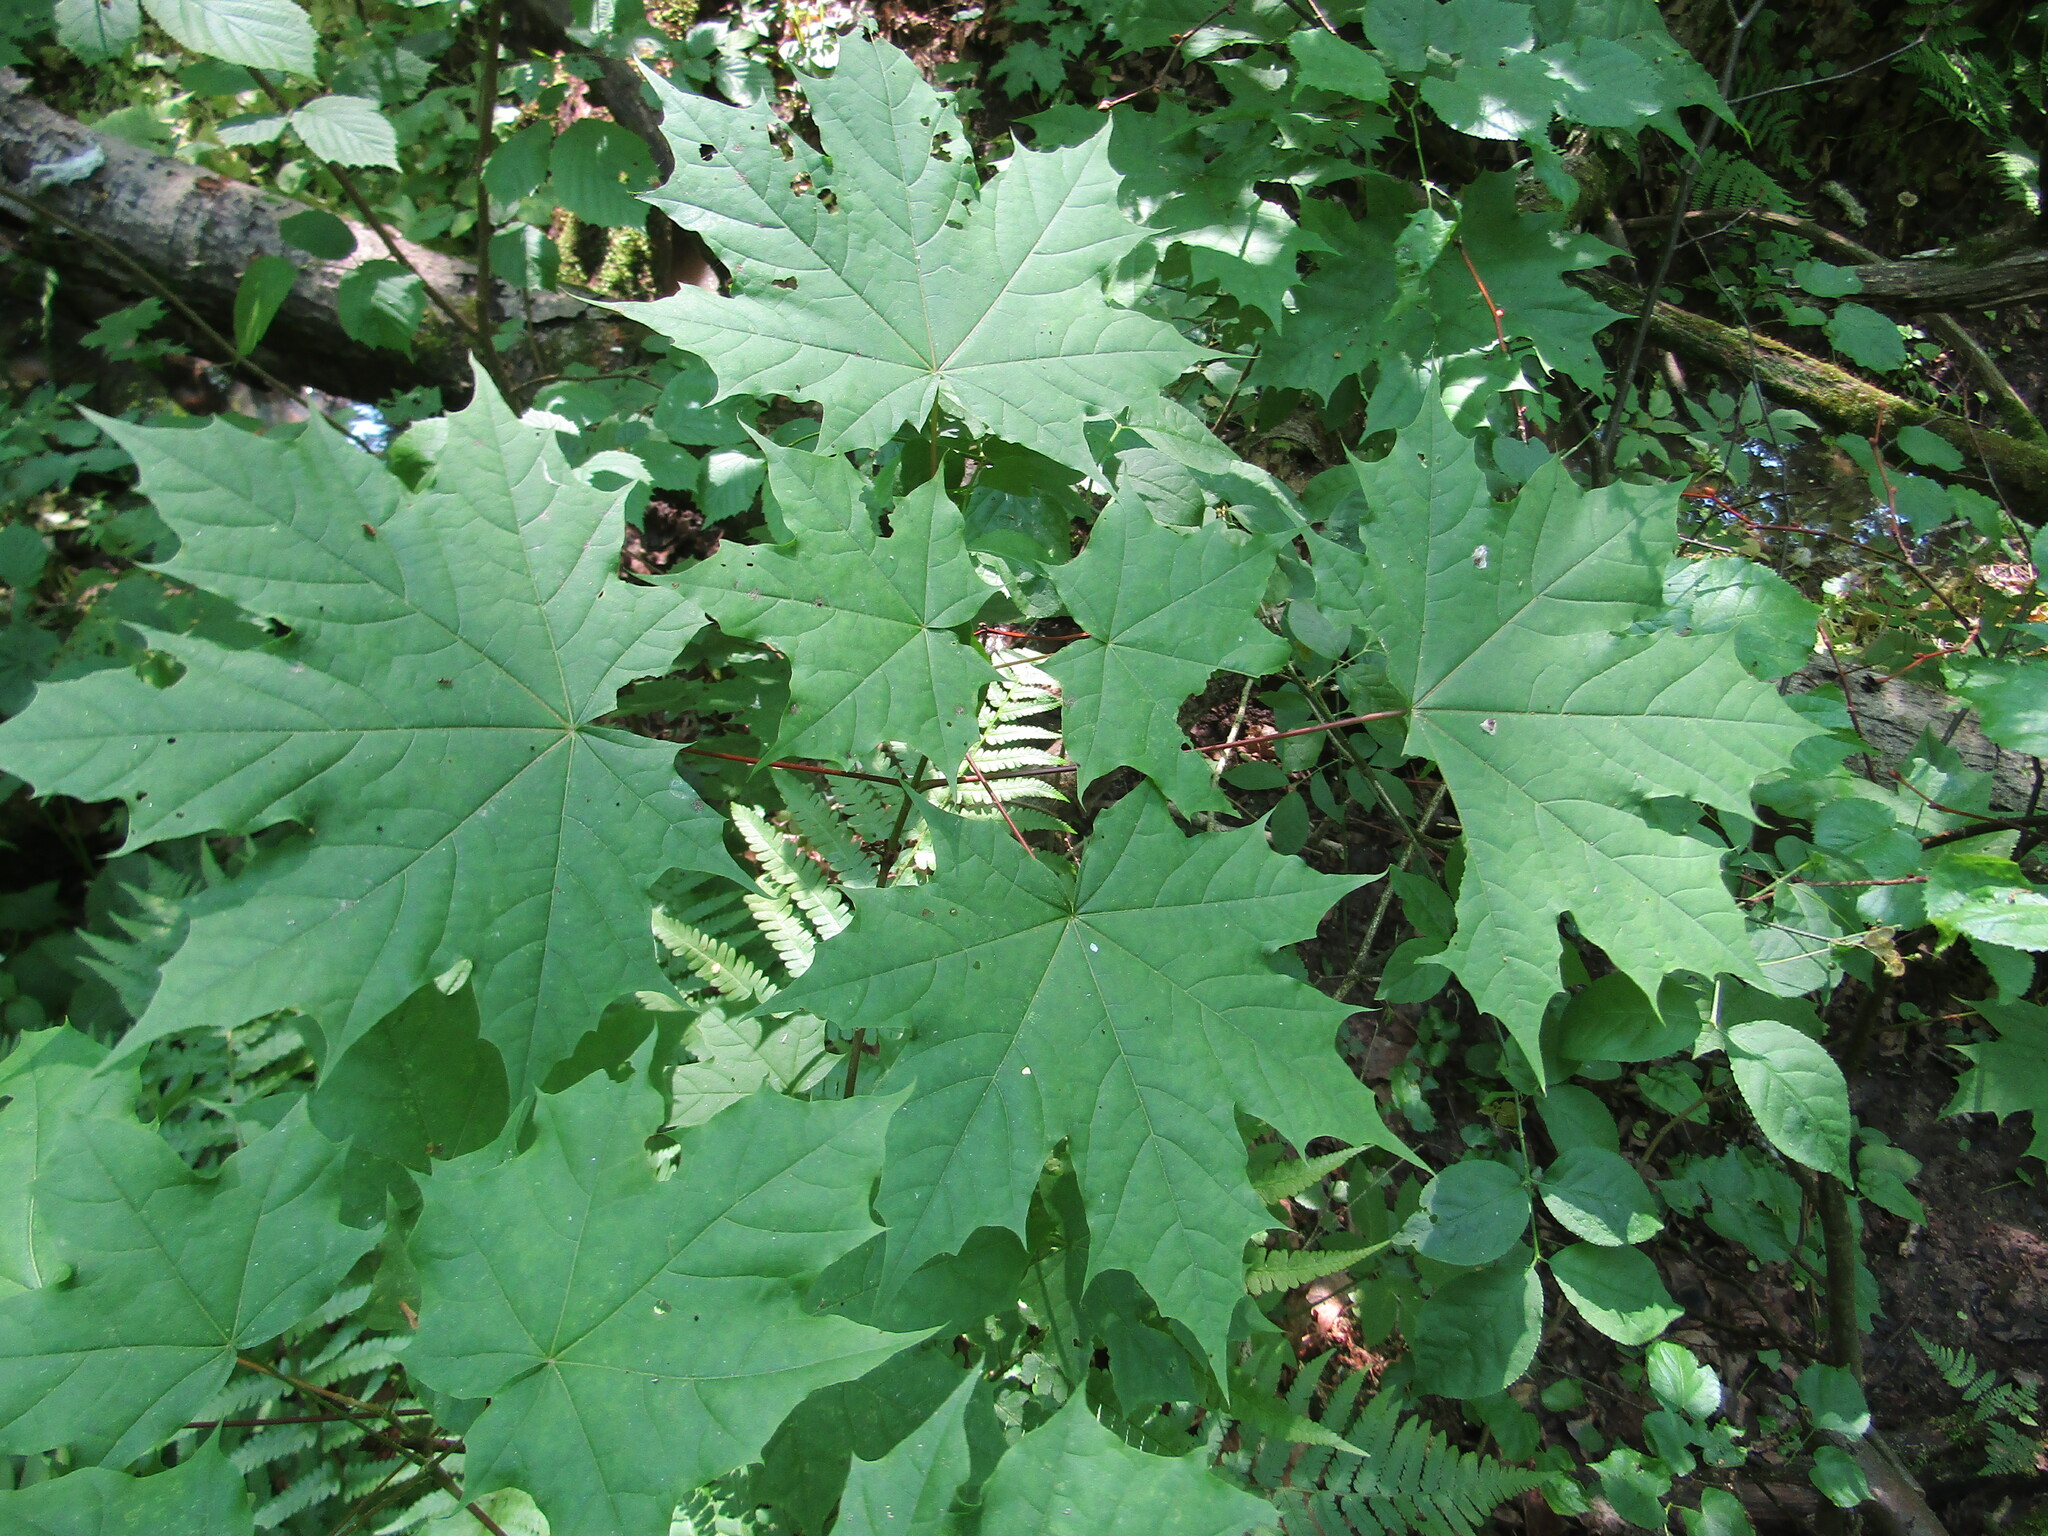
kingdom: Plantae
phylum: Tracheophyta
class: Magnoliopsida
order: Sapindales
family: Sapindaceae
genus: Acer
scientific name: Acer platanoides
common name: Norway maple
